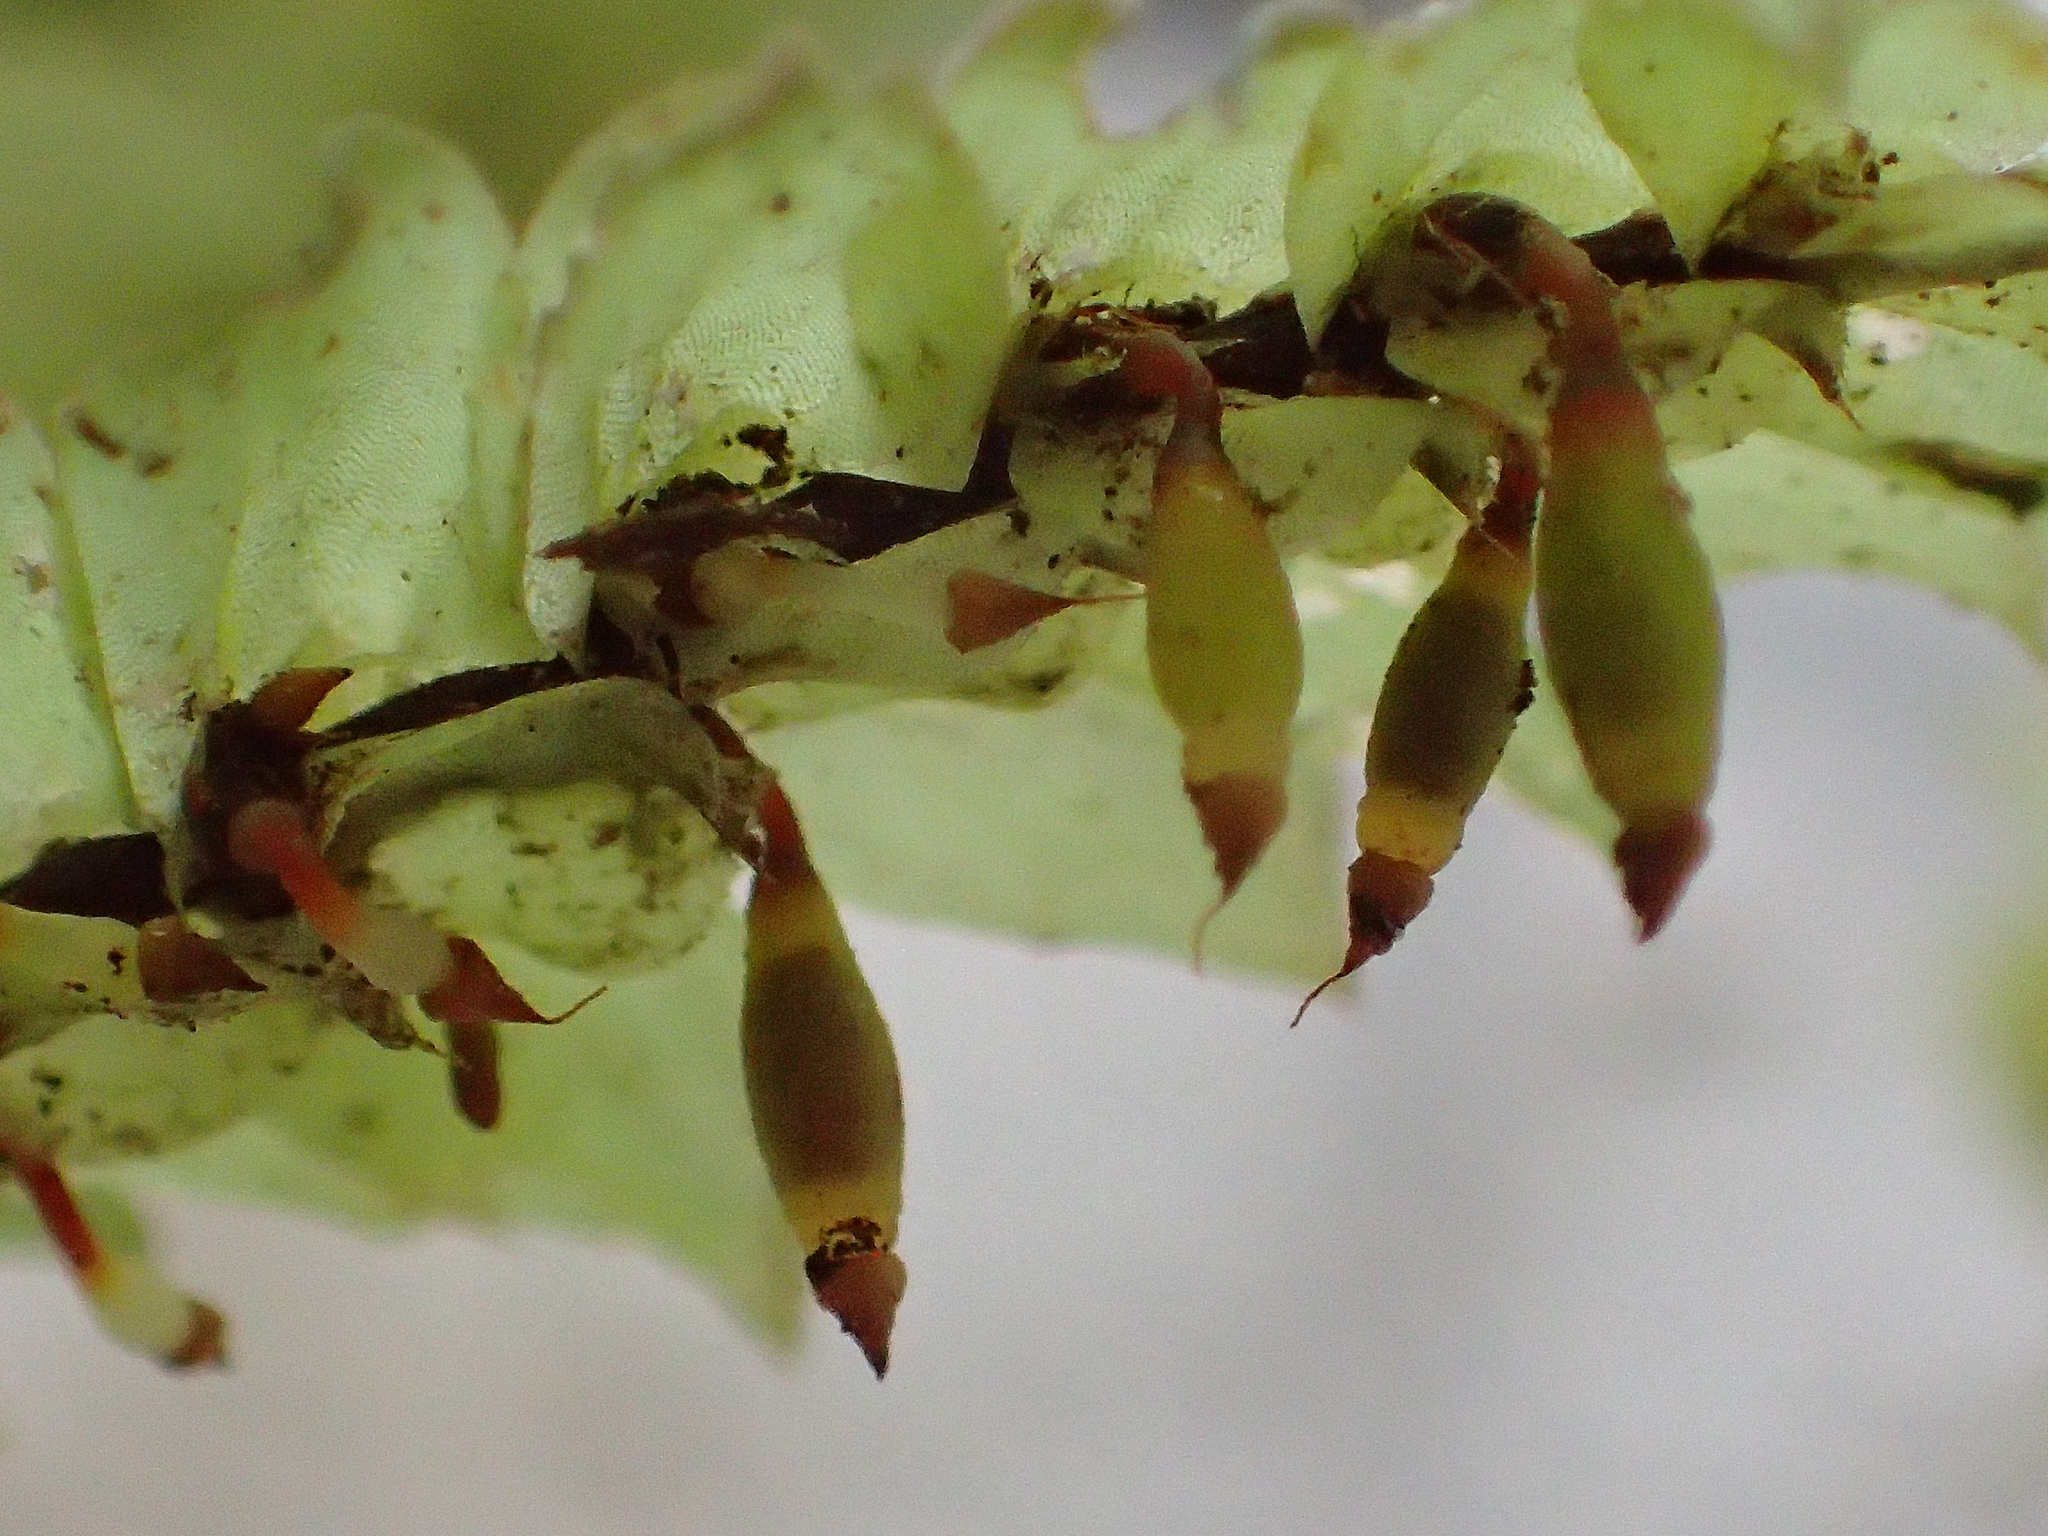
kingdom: Plantae
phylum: Bryophyta
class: Bryopsida
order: Hypopterygiales
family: Hypopterygiaceae
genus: Cyathophorum
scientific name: Cyathophorum bulbosum
